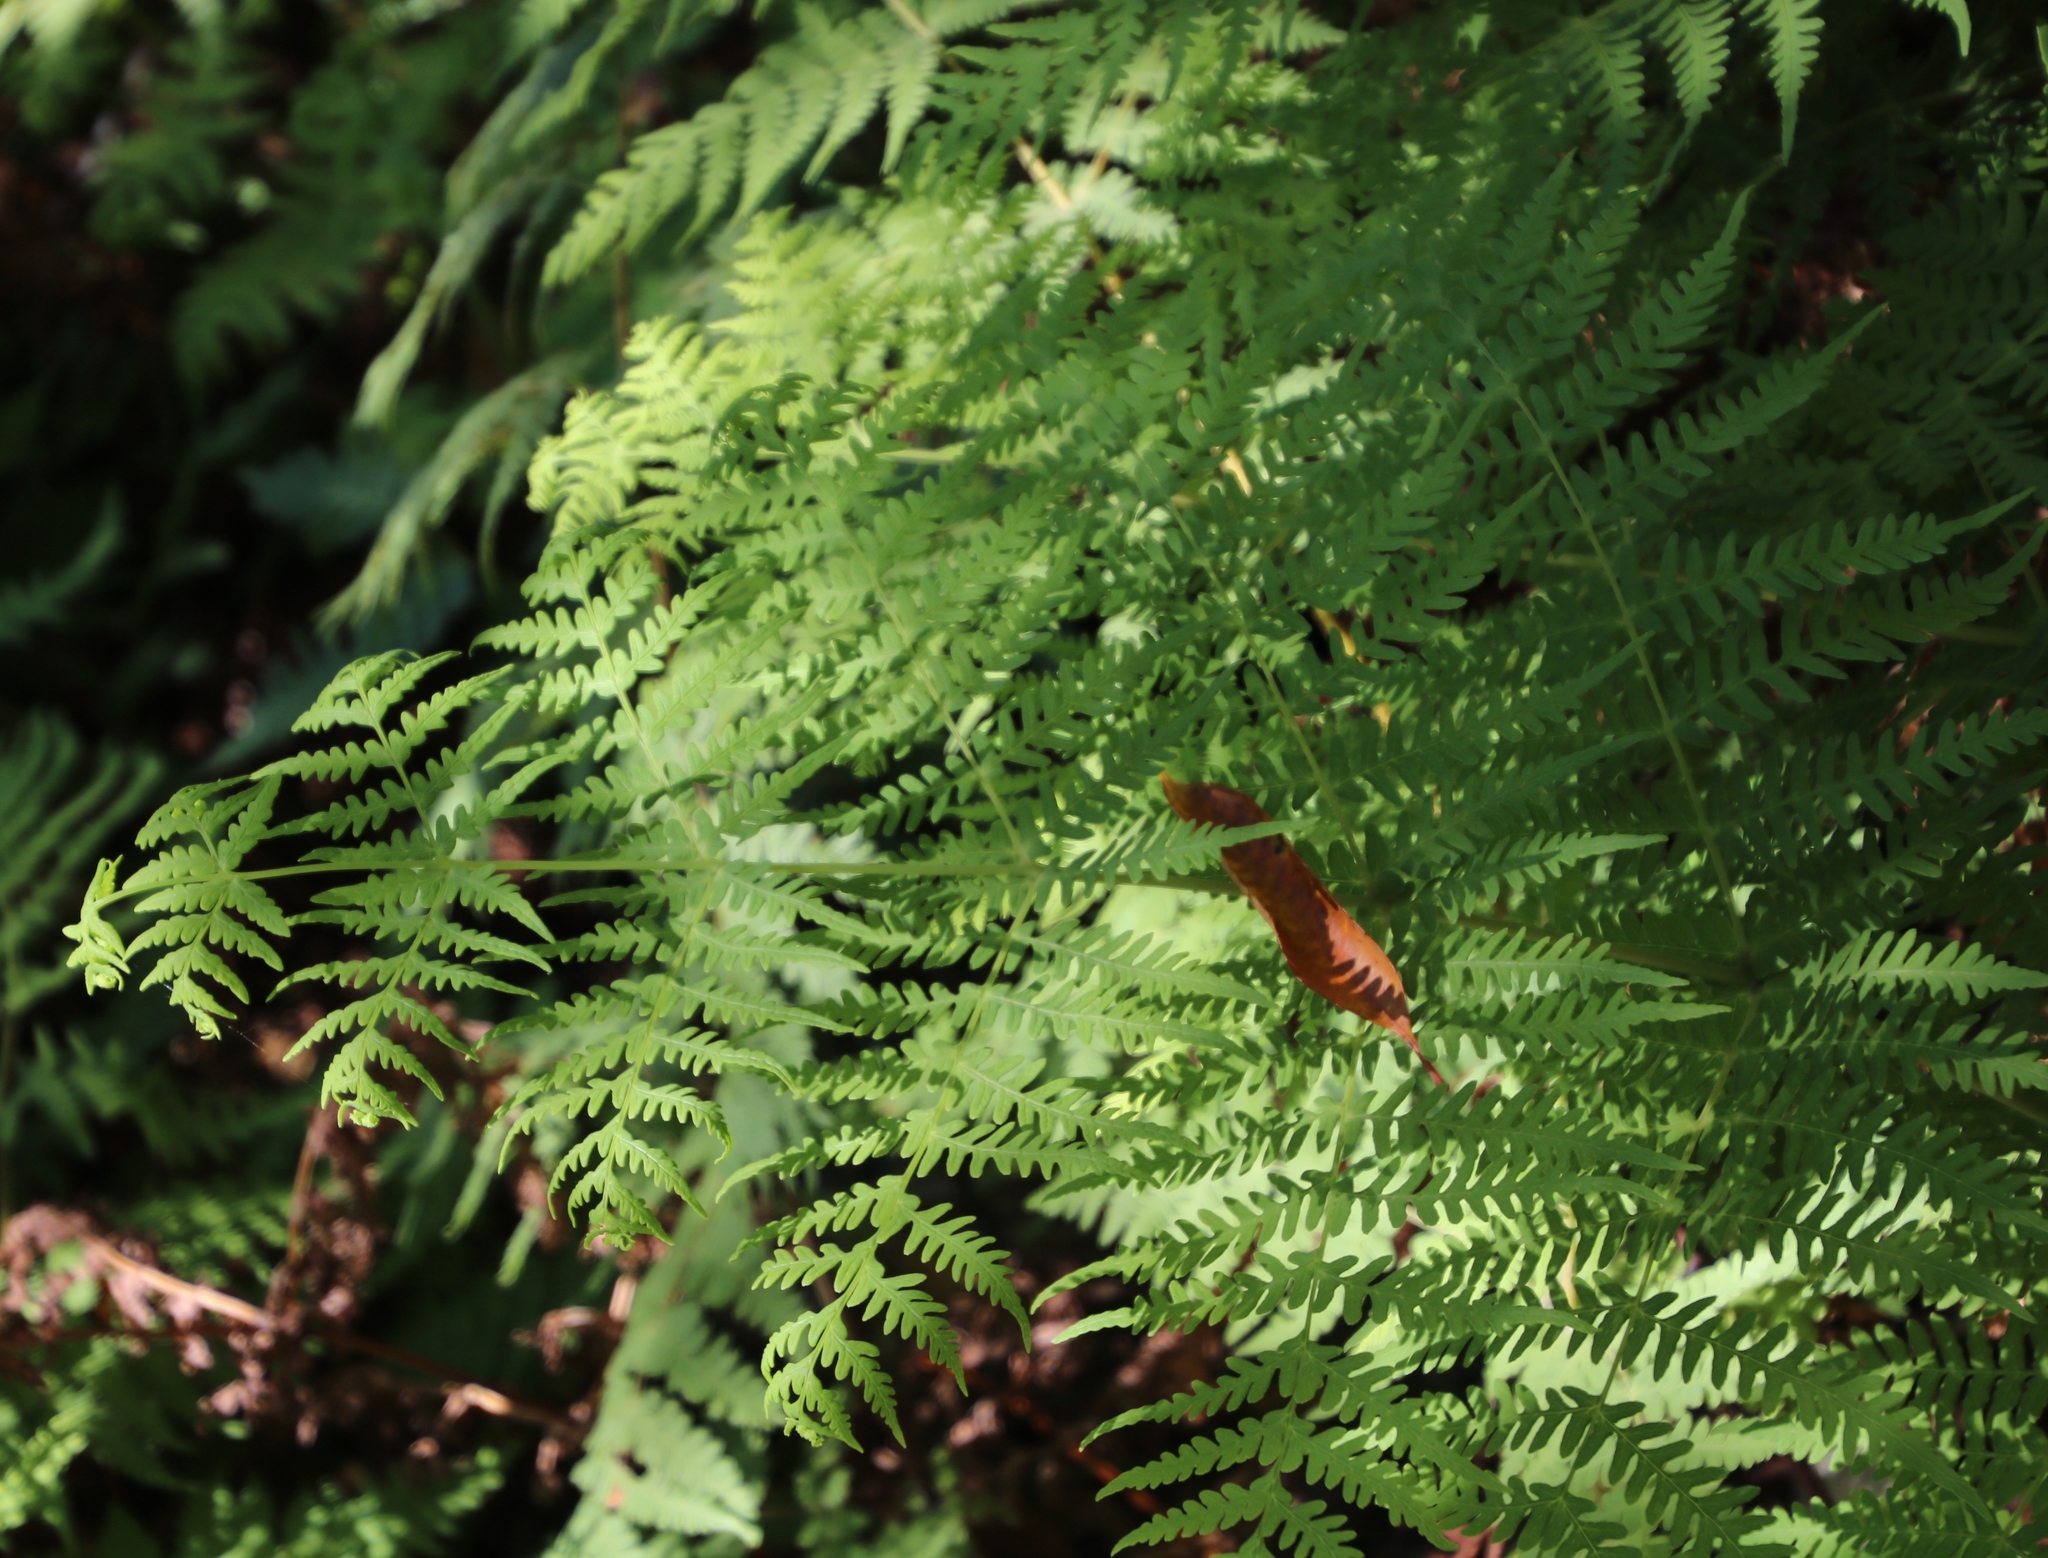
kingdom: Plantae
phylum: Tracheophyta
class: Polypodiopsida
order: Polypodiales
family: Dennstaedtiaceae
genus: Histiopteris
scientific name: Histiopteris incisa
